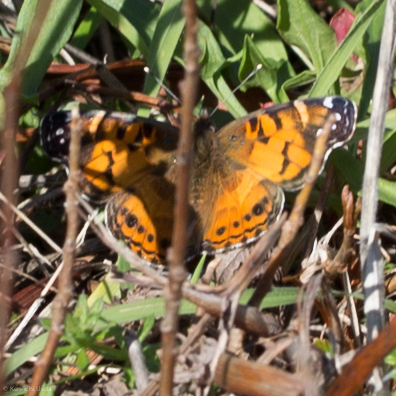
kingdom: Animalia
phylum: Arthropoda
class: Insecta
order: Lepidoptera
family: Nymphalidae
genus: Vanessa
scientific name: Vanessa virginiensis
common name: American lady
